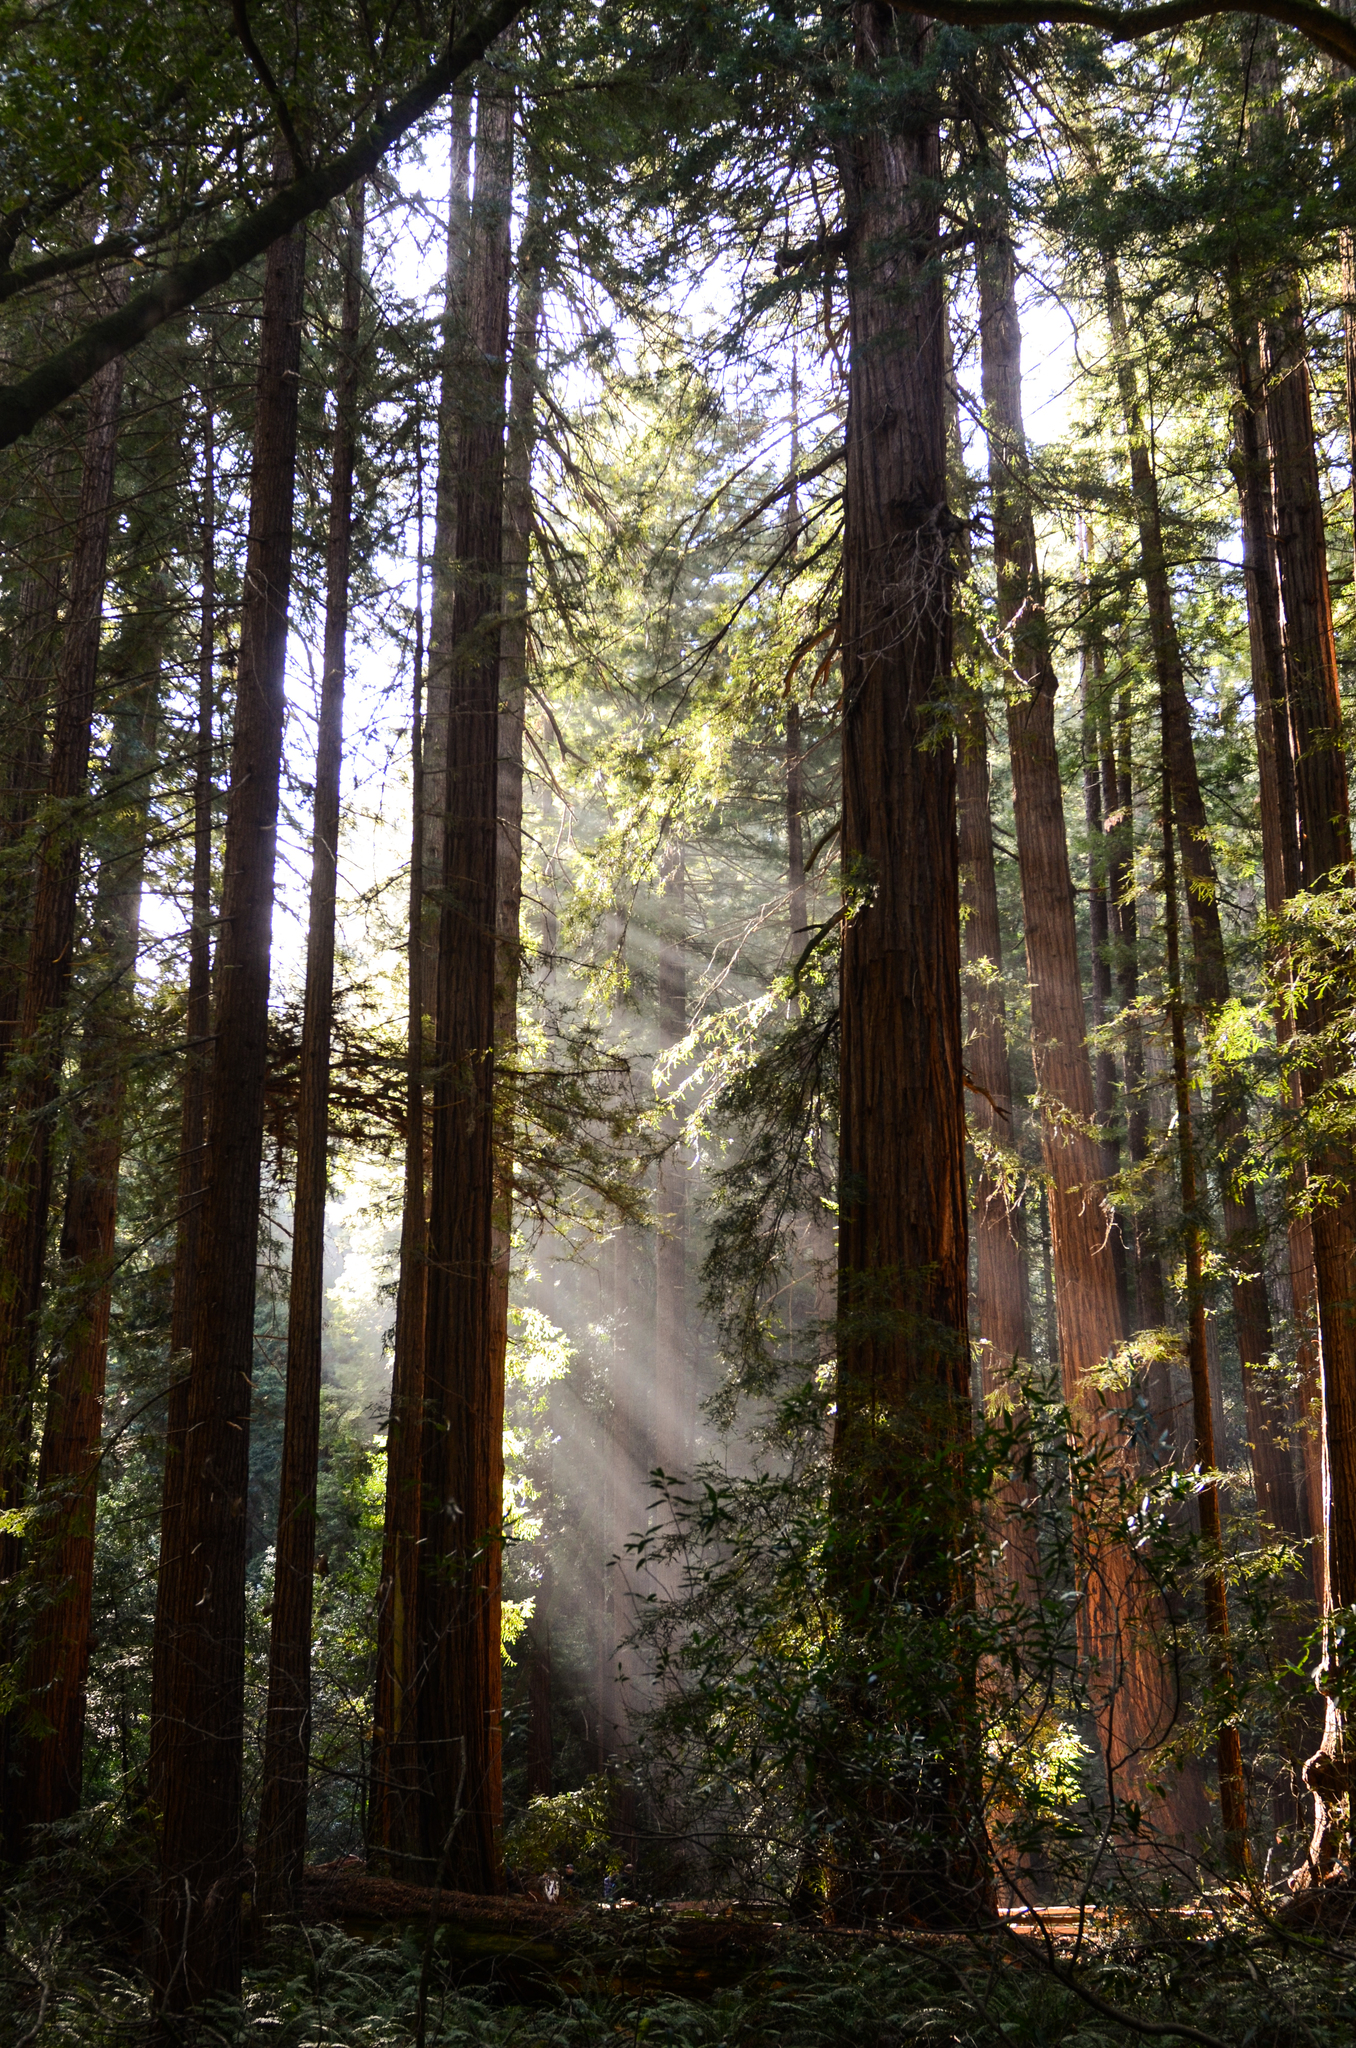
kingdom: Plantae
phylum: Tracheophyta
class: Pinopsida
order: Pinales
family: Cupressaceae
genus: Sequoia
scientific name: Sequoia sempervirens
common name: Coast redwood
